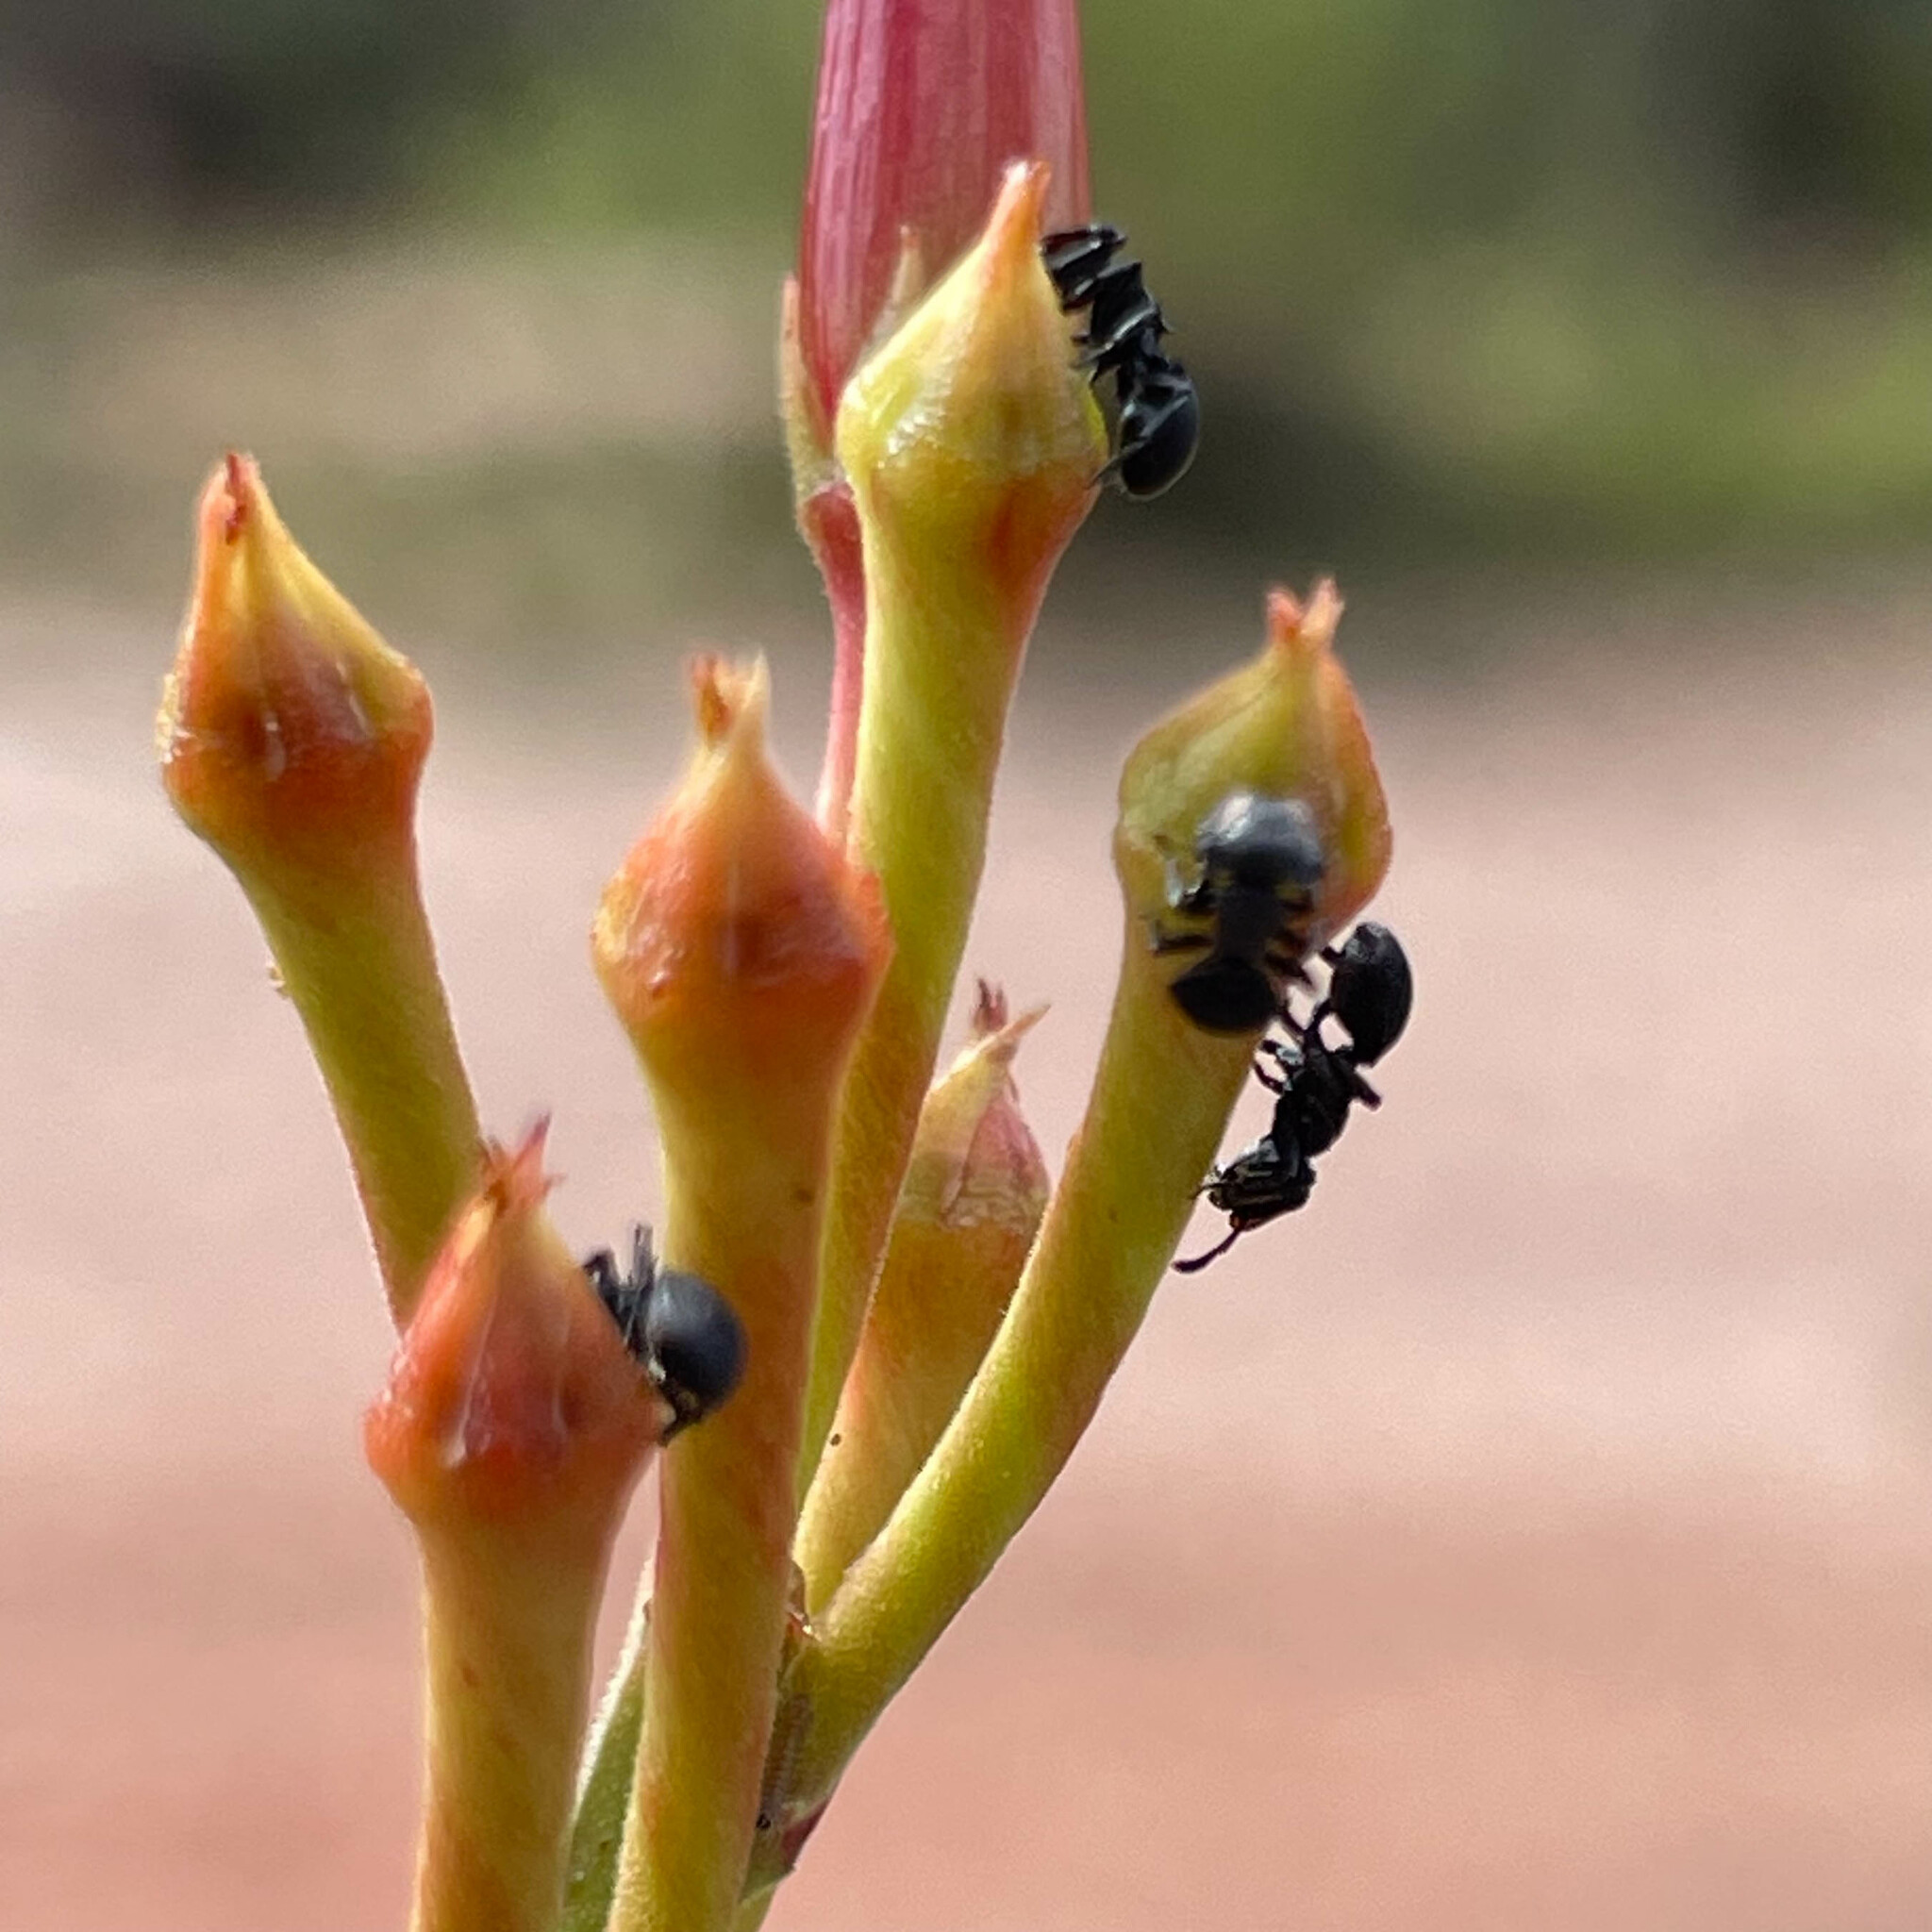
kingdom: Animalia
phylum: Arthropoda
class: Insecta
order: Hymenoptera
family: Formicidae
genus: Cephalotes
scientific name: Cephalotes
